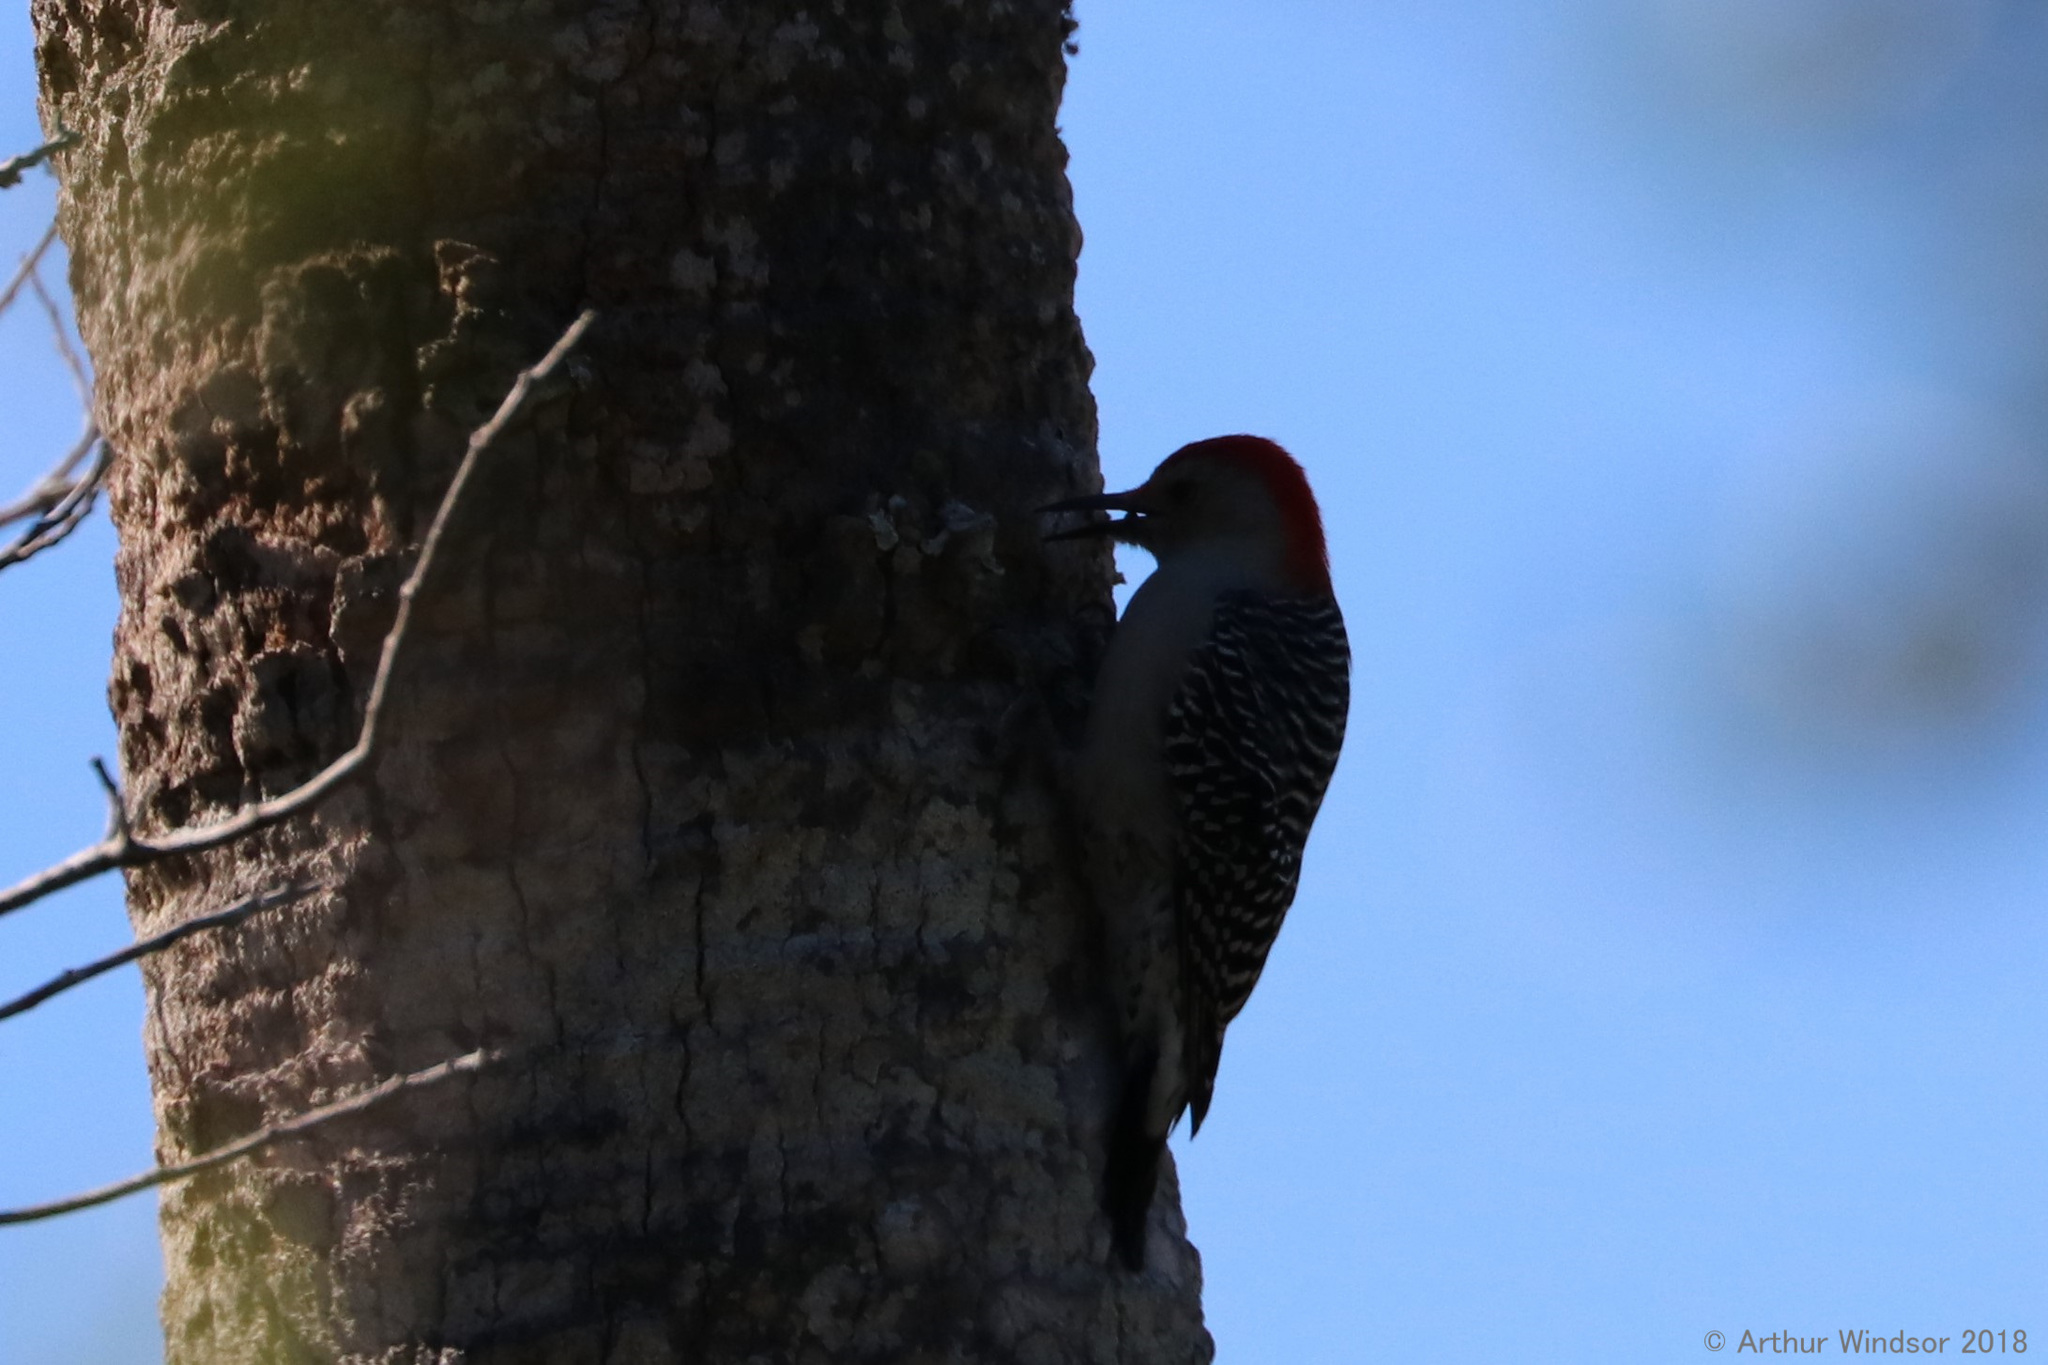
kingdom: Animalia
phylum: Chordata
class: Aves
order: Piciformes
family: Picidae
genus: Melanerpes
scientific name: Melanerpes carolinus
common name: Red-bellied woodpecker
